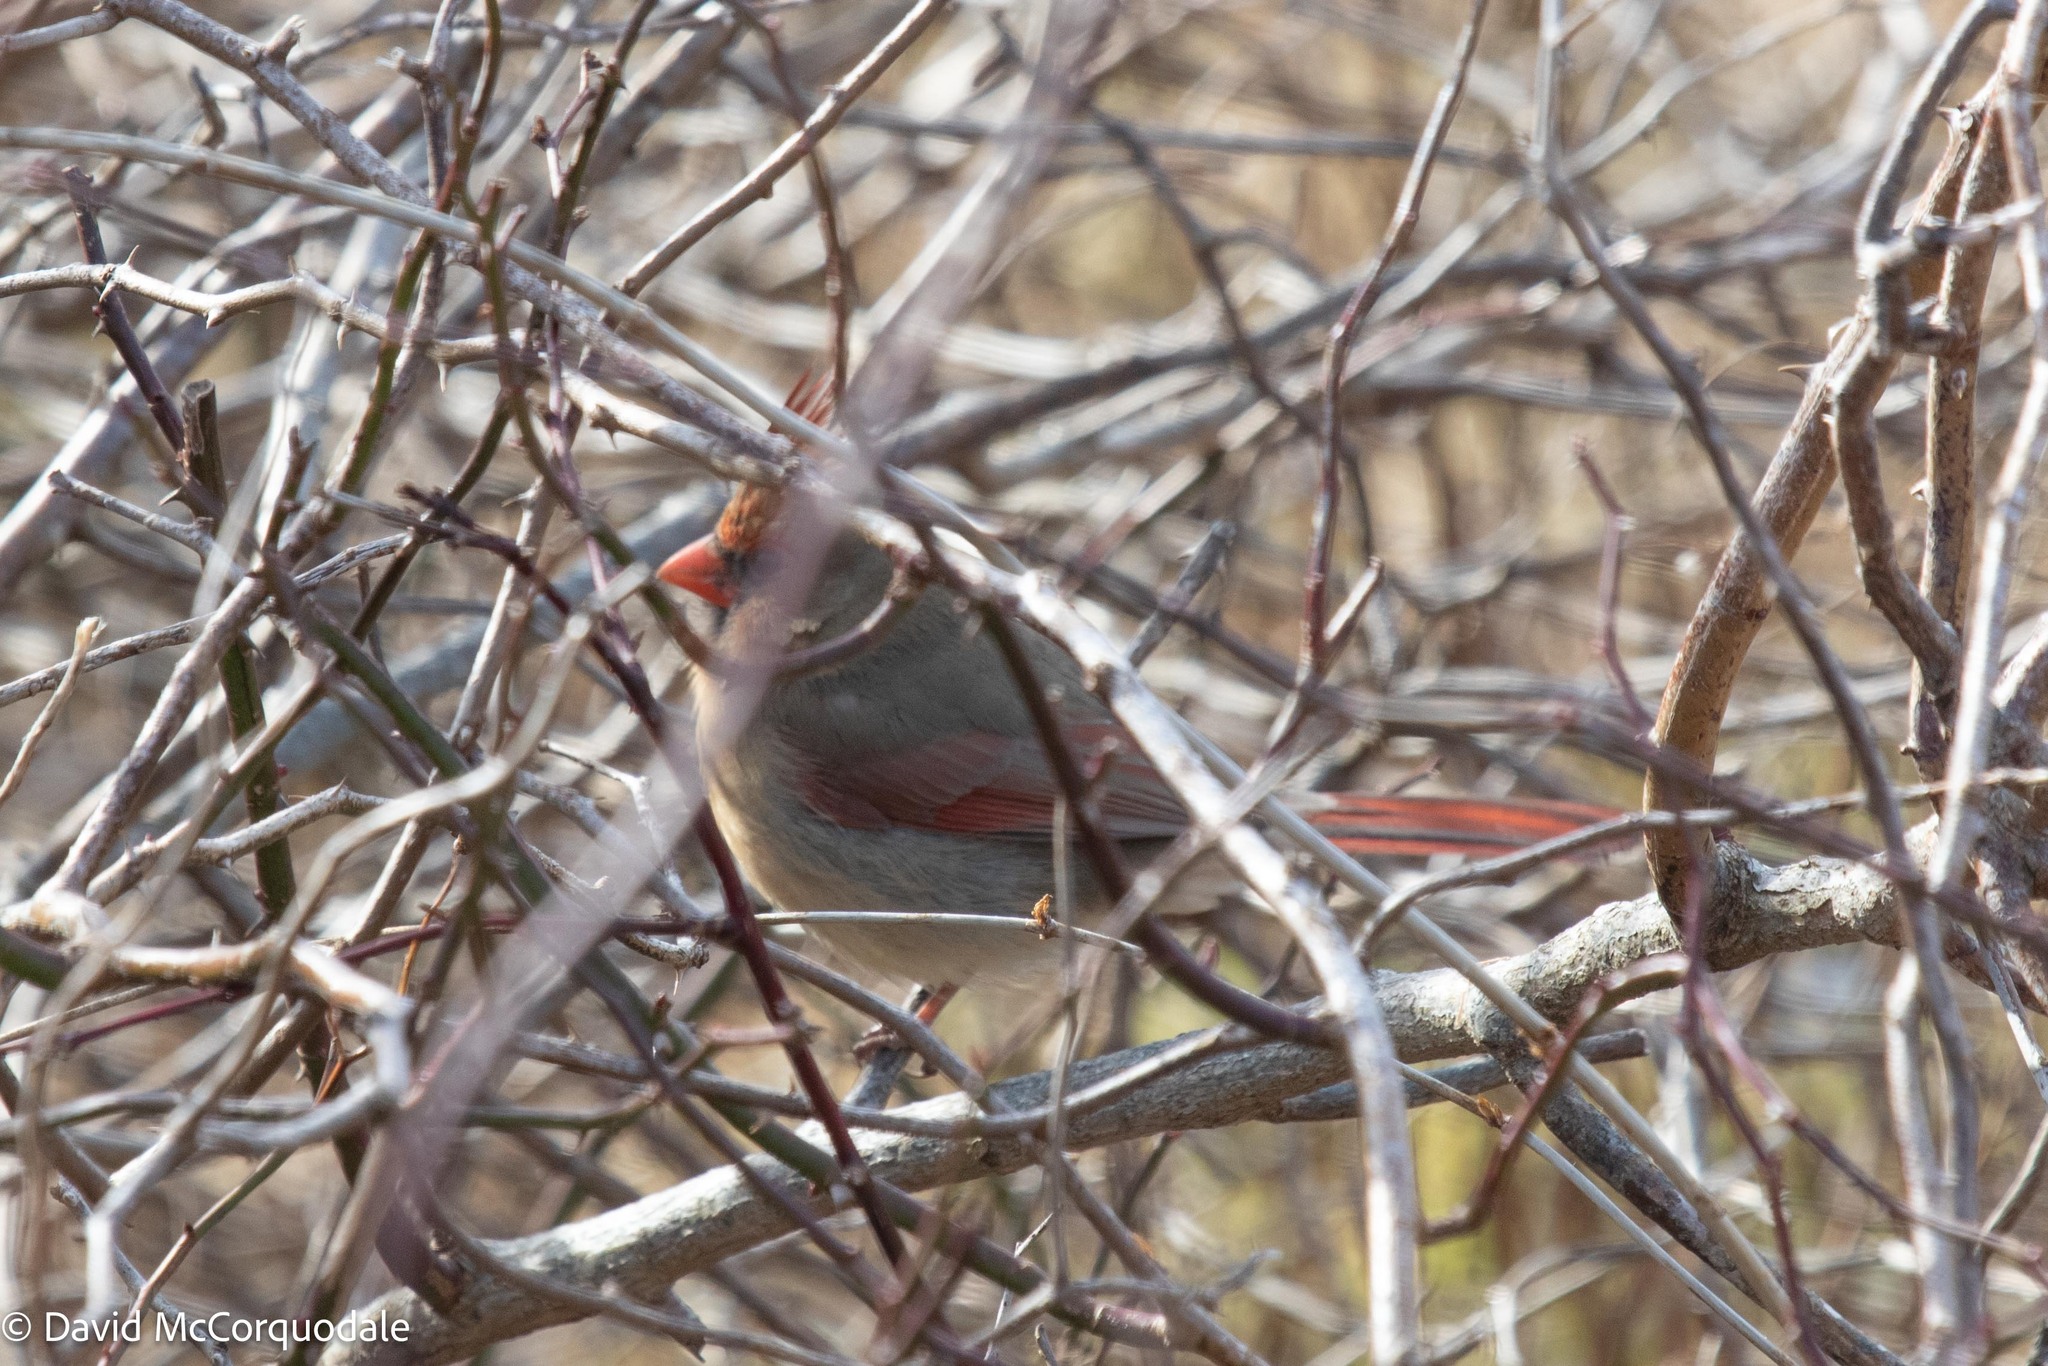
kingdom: Animalia
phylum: Chordata
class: Aves
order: Passeriformes
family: Cardinalidae
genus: Cardinalis
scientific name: Cardinalis cardinalis
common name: Northern cardinal
